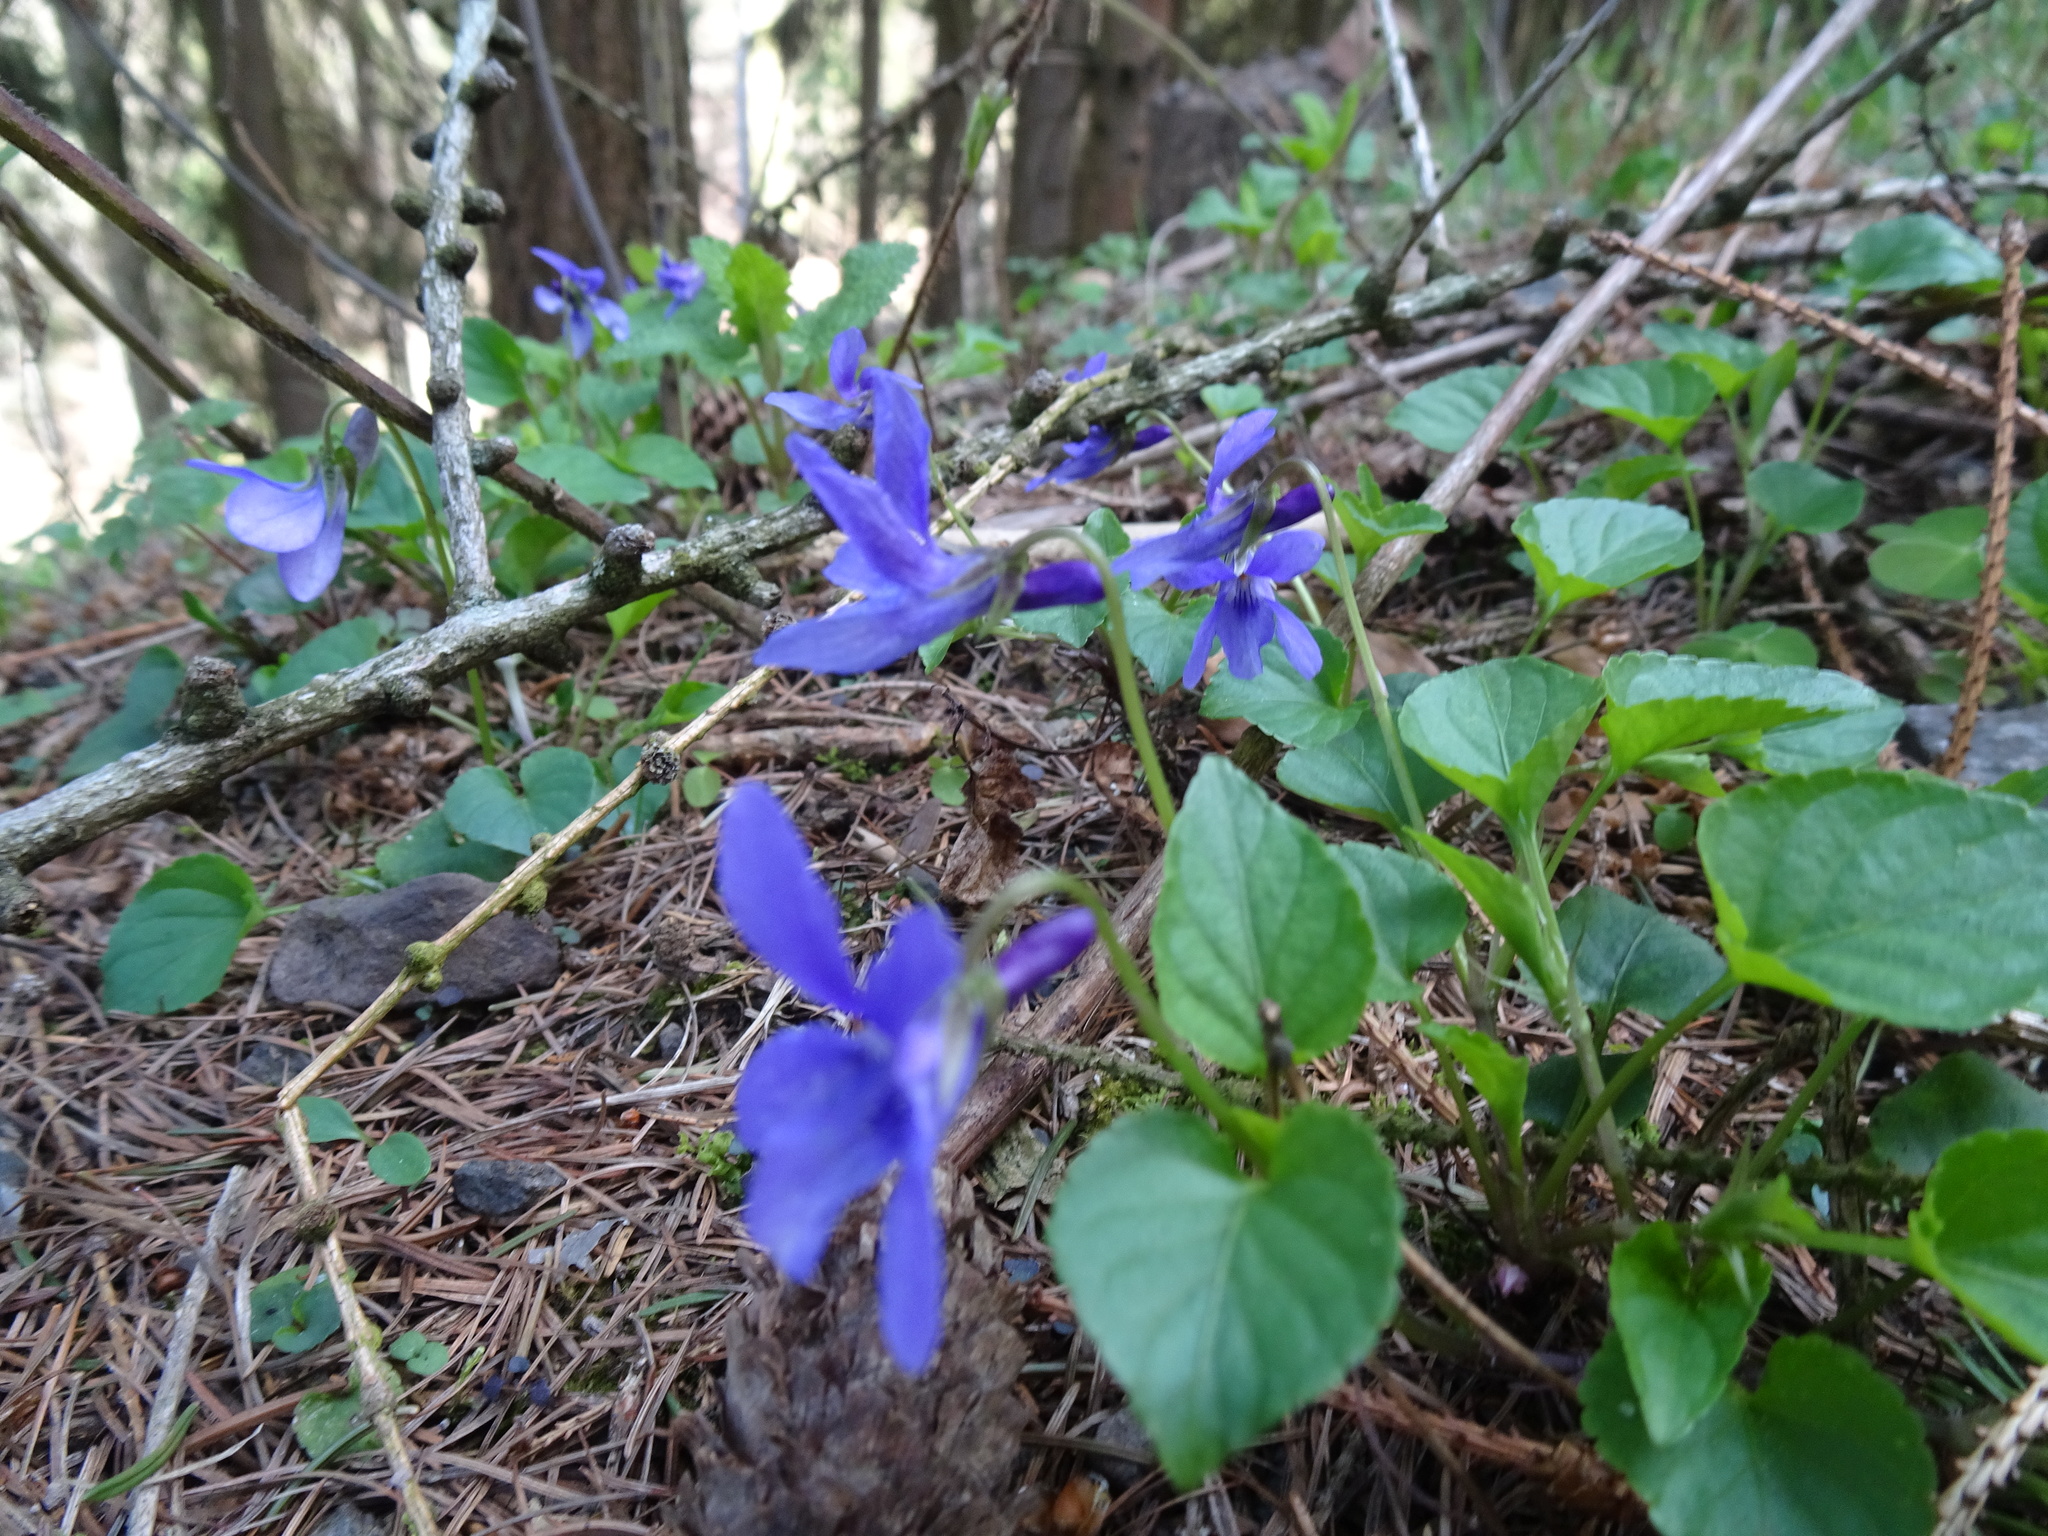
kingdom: Plantae
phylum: Tracheophyta
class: Magnoliopsida
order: Malpighiales
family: Violaceae
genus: Viola
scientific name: Viola reichenbachiana
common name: Early dog-violet
